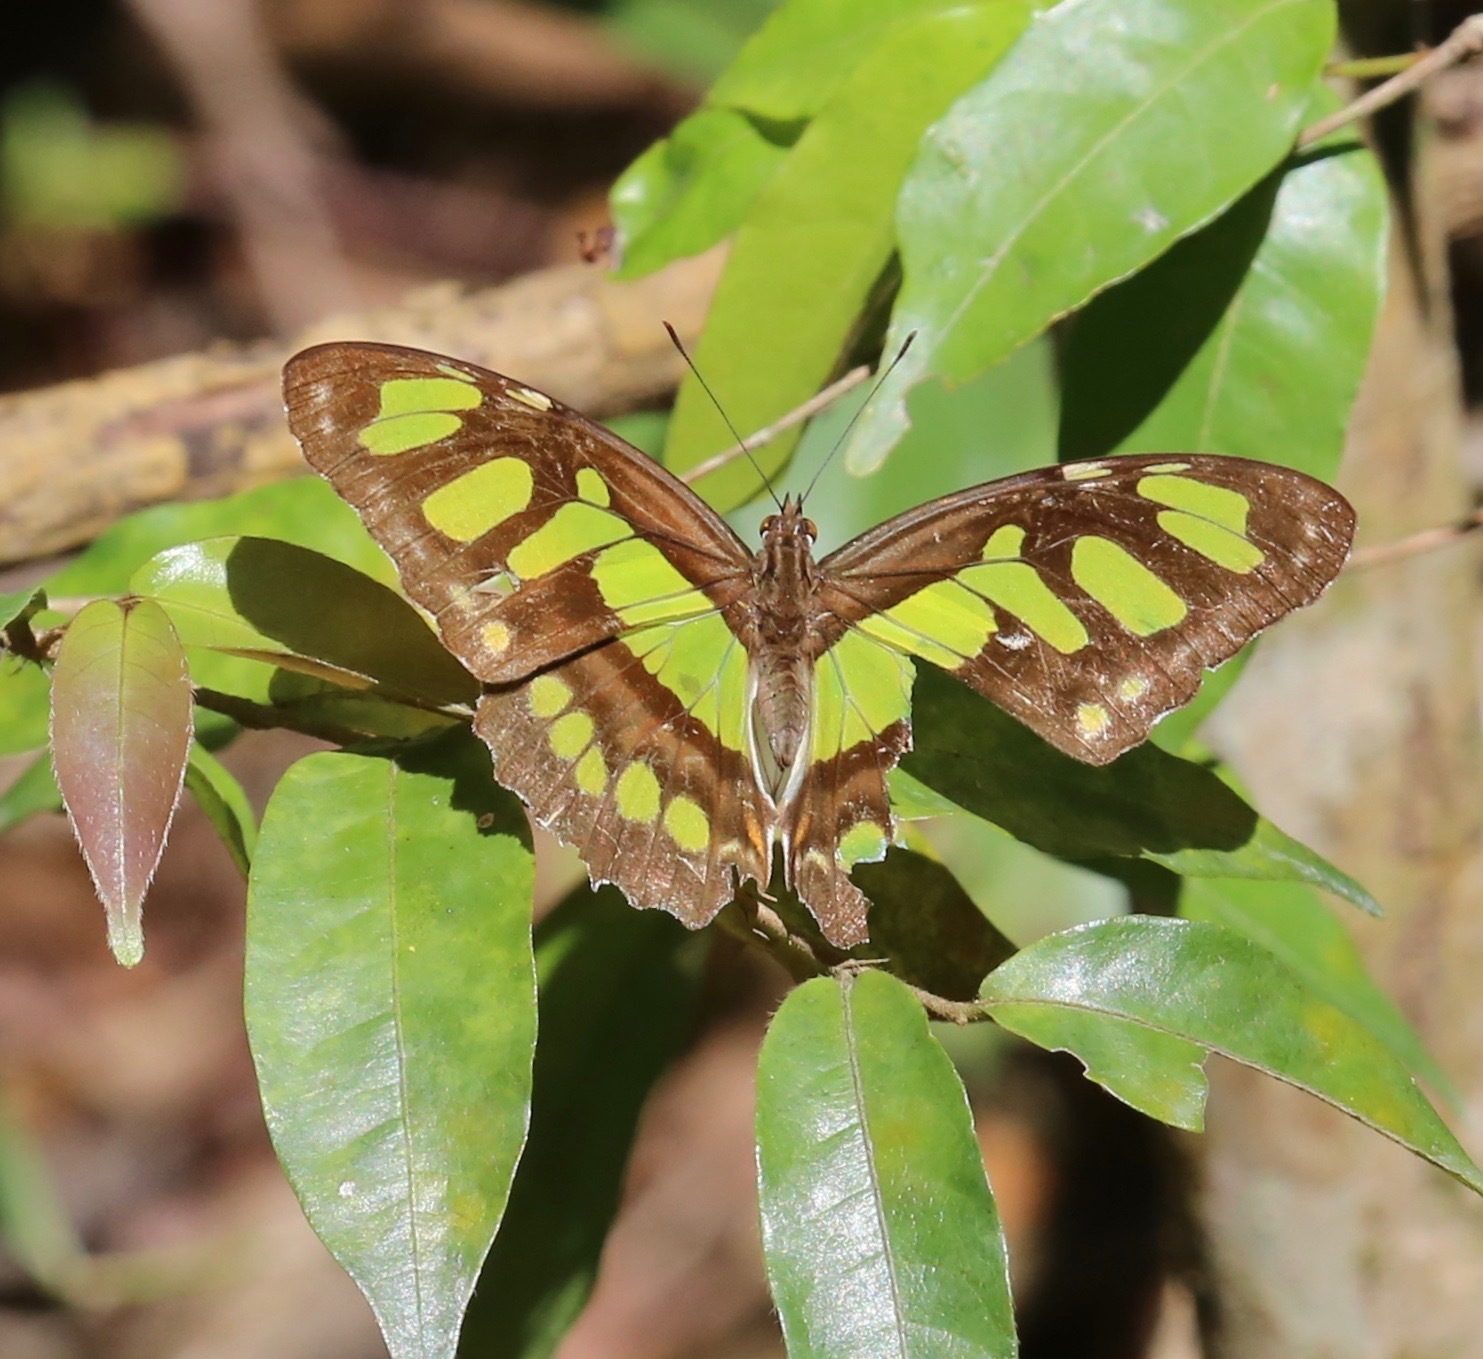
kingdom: Animalia
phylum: Arthropoda
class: Insecta
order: Lepidoptera
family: Nymphalidae
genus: Siproeta
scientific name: Siproeta stelenes
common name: Malachite
